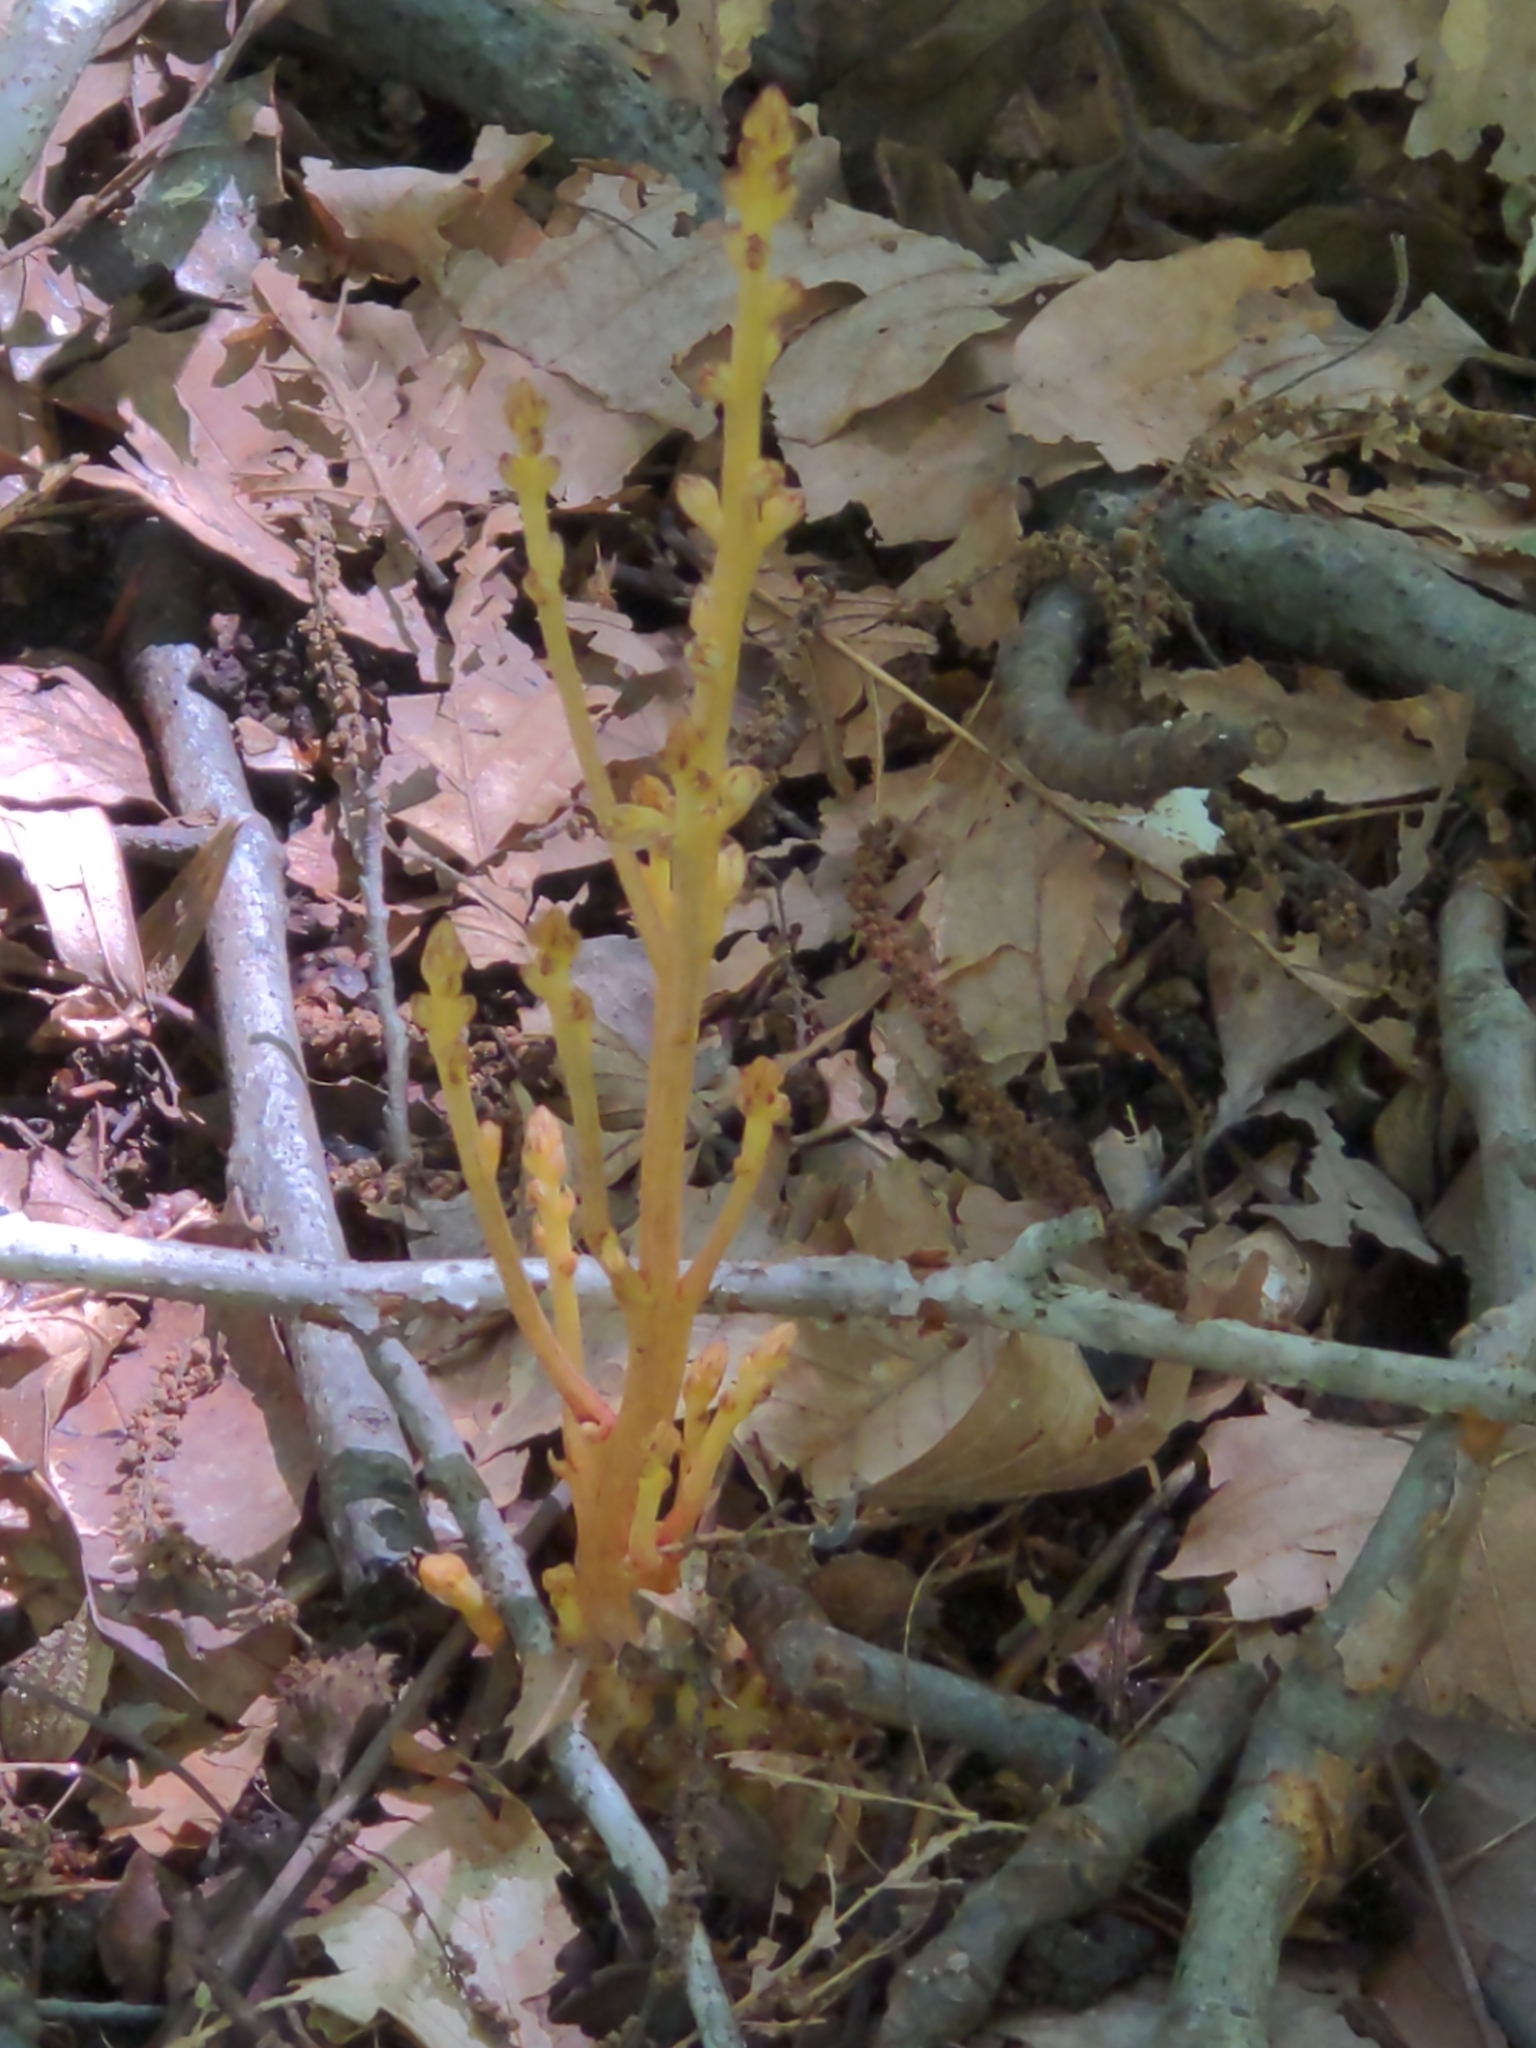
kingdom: Plantae
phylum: Tracheophyta
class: Magnoliopsida
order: Lamiales
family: Orobanchaceae
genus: Epifagus
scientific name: Epifagus virginiana
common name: Beechdrops
